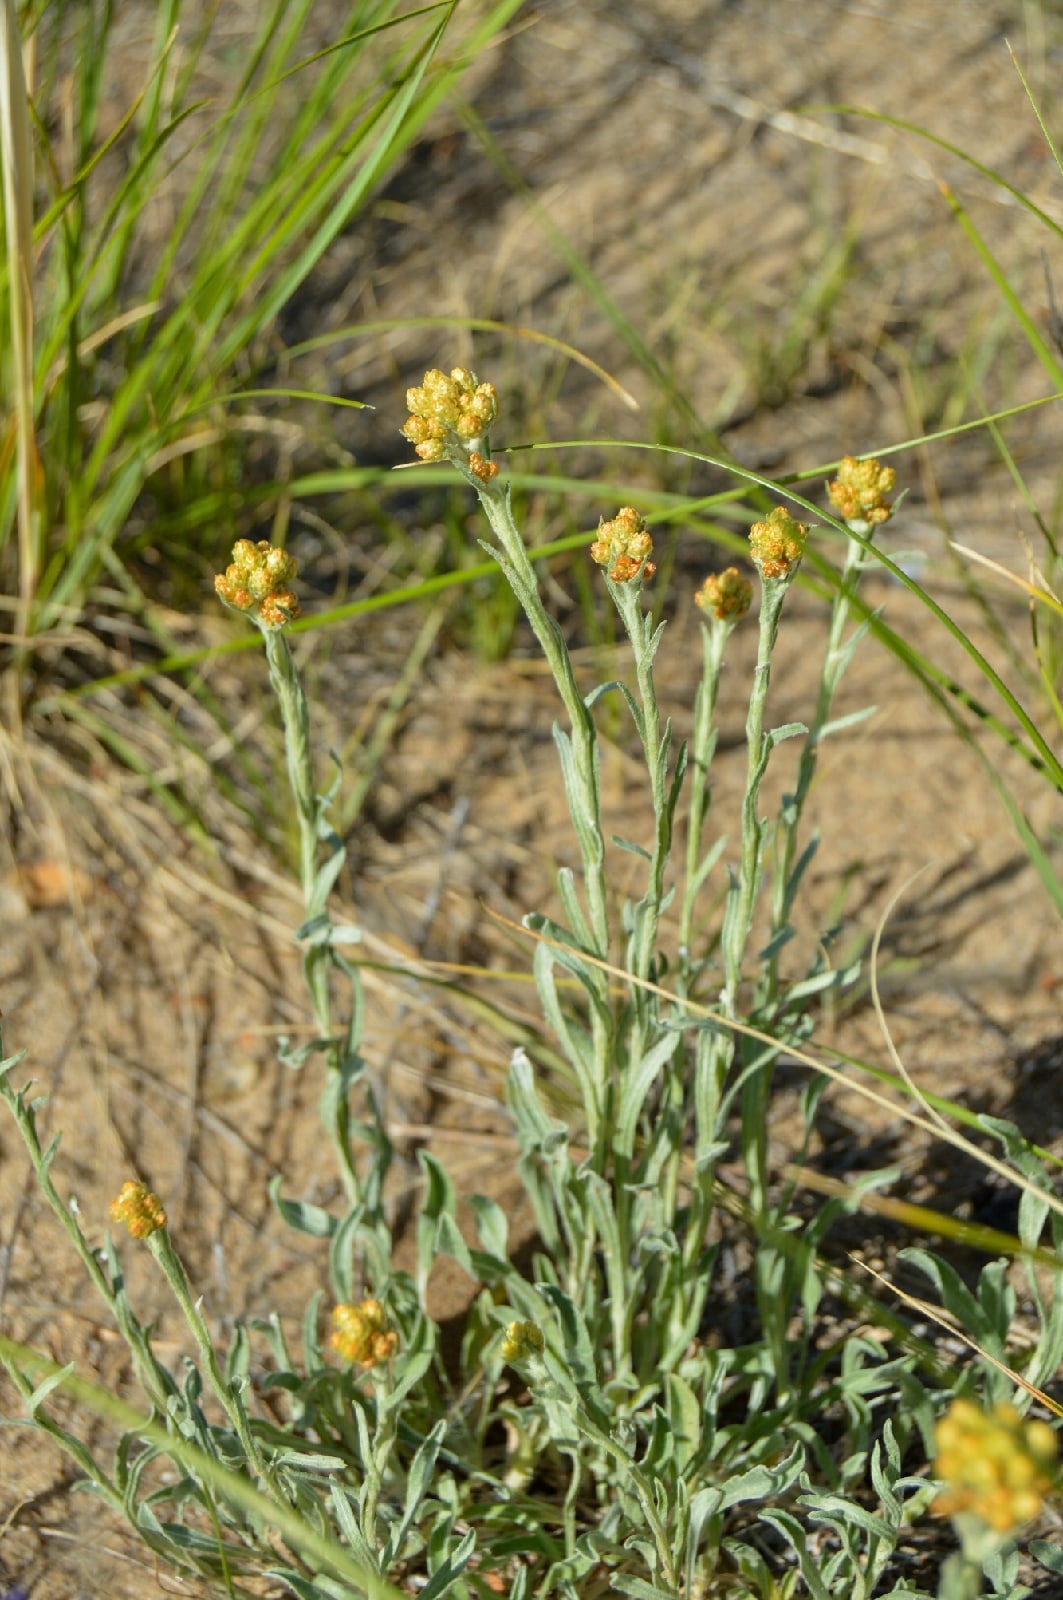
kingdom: Plantae
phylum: Tracheophyta
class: Magnoliopsida
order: Asterales
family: Asteraceae
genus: Helichrysum
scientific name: Helichrysum arenarium
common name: Strawflower
